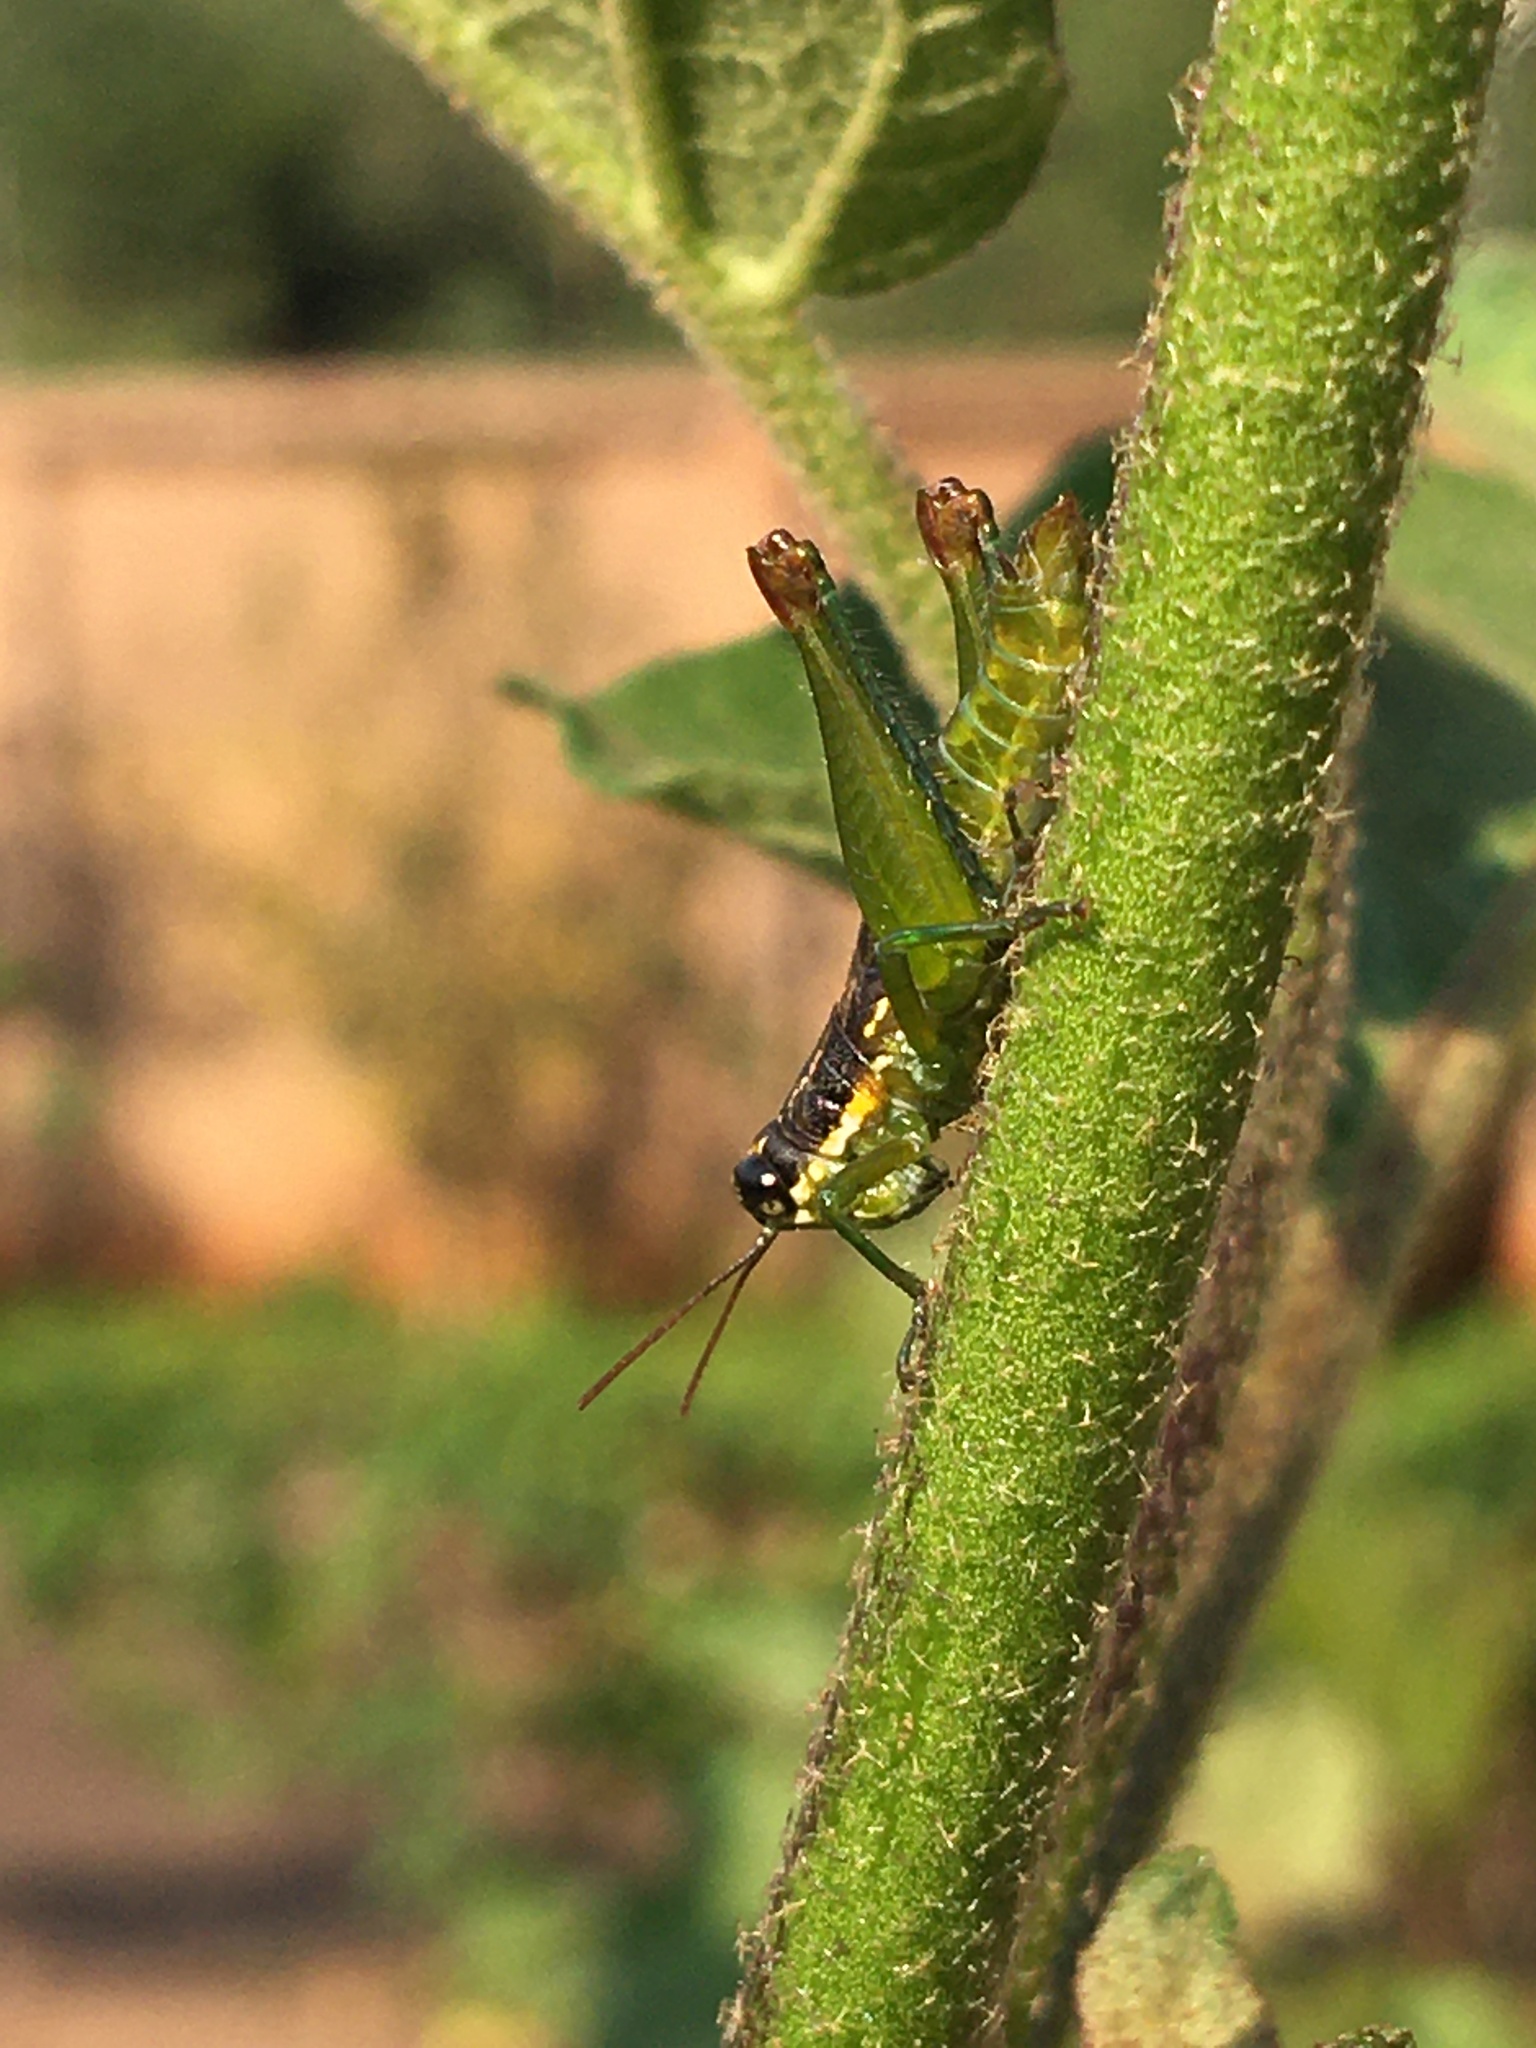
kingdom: Animalia
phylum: Arthropoda
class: Insecta
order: Orthoptera
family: Acrididae
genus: Liebermannacris
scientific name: Liebermannacris dorsualis
